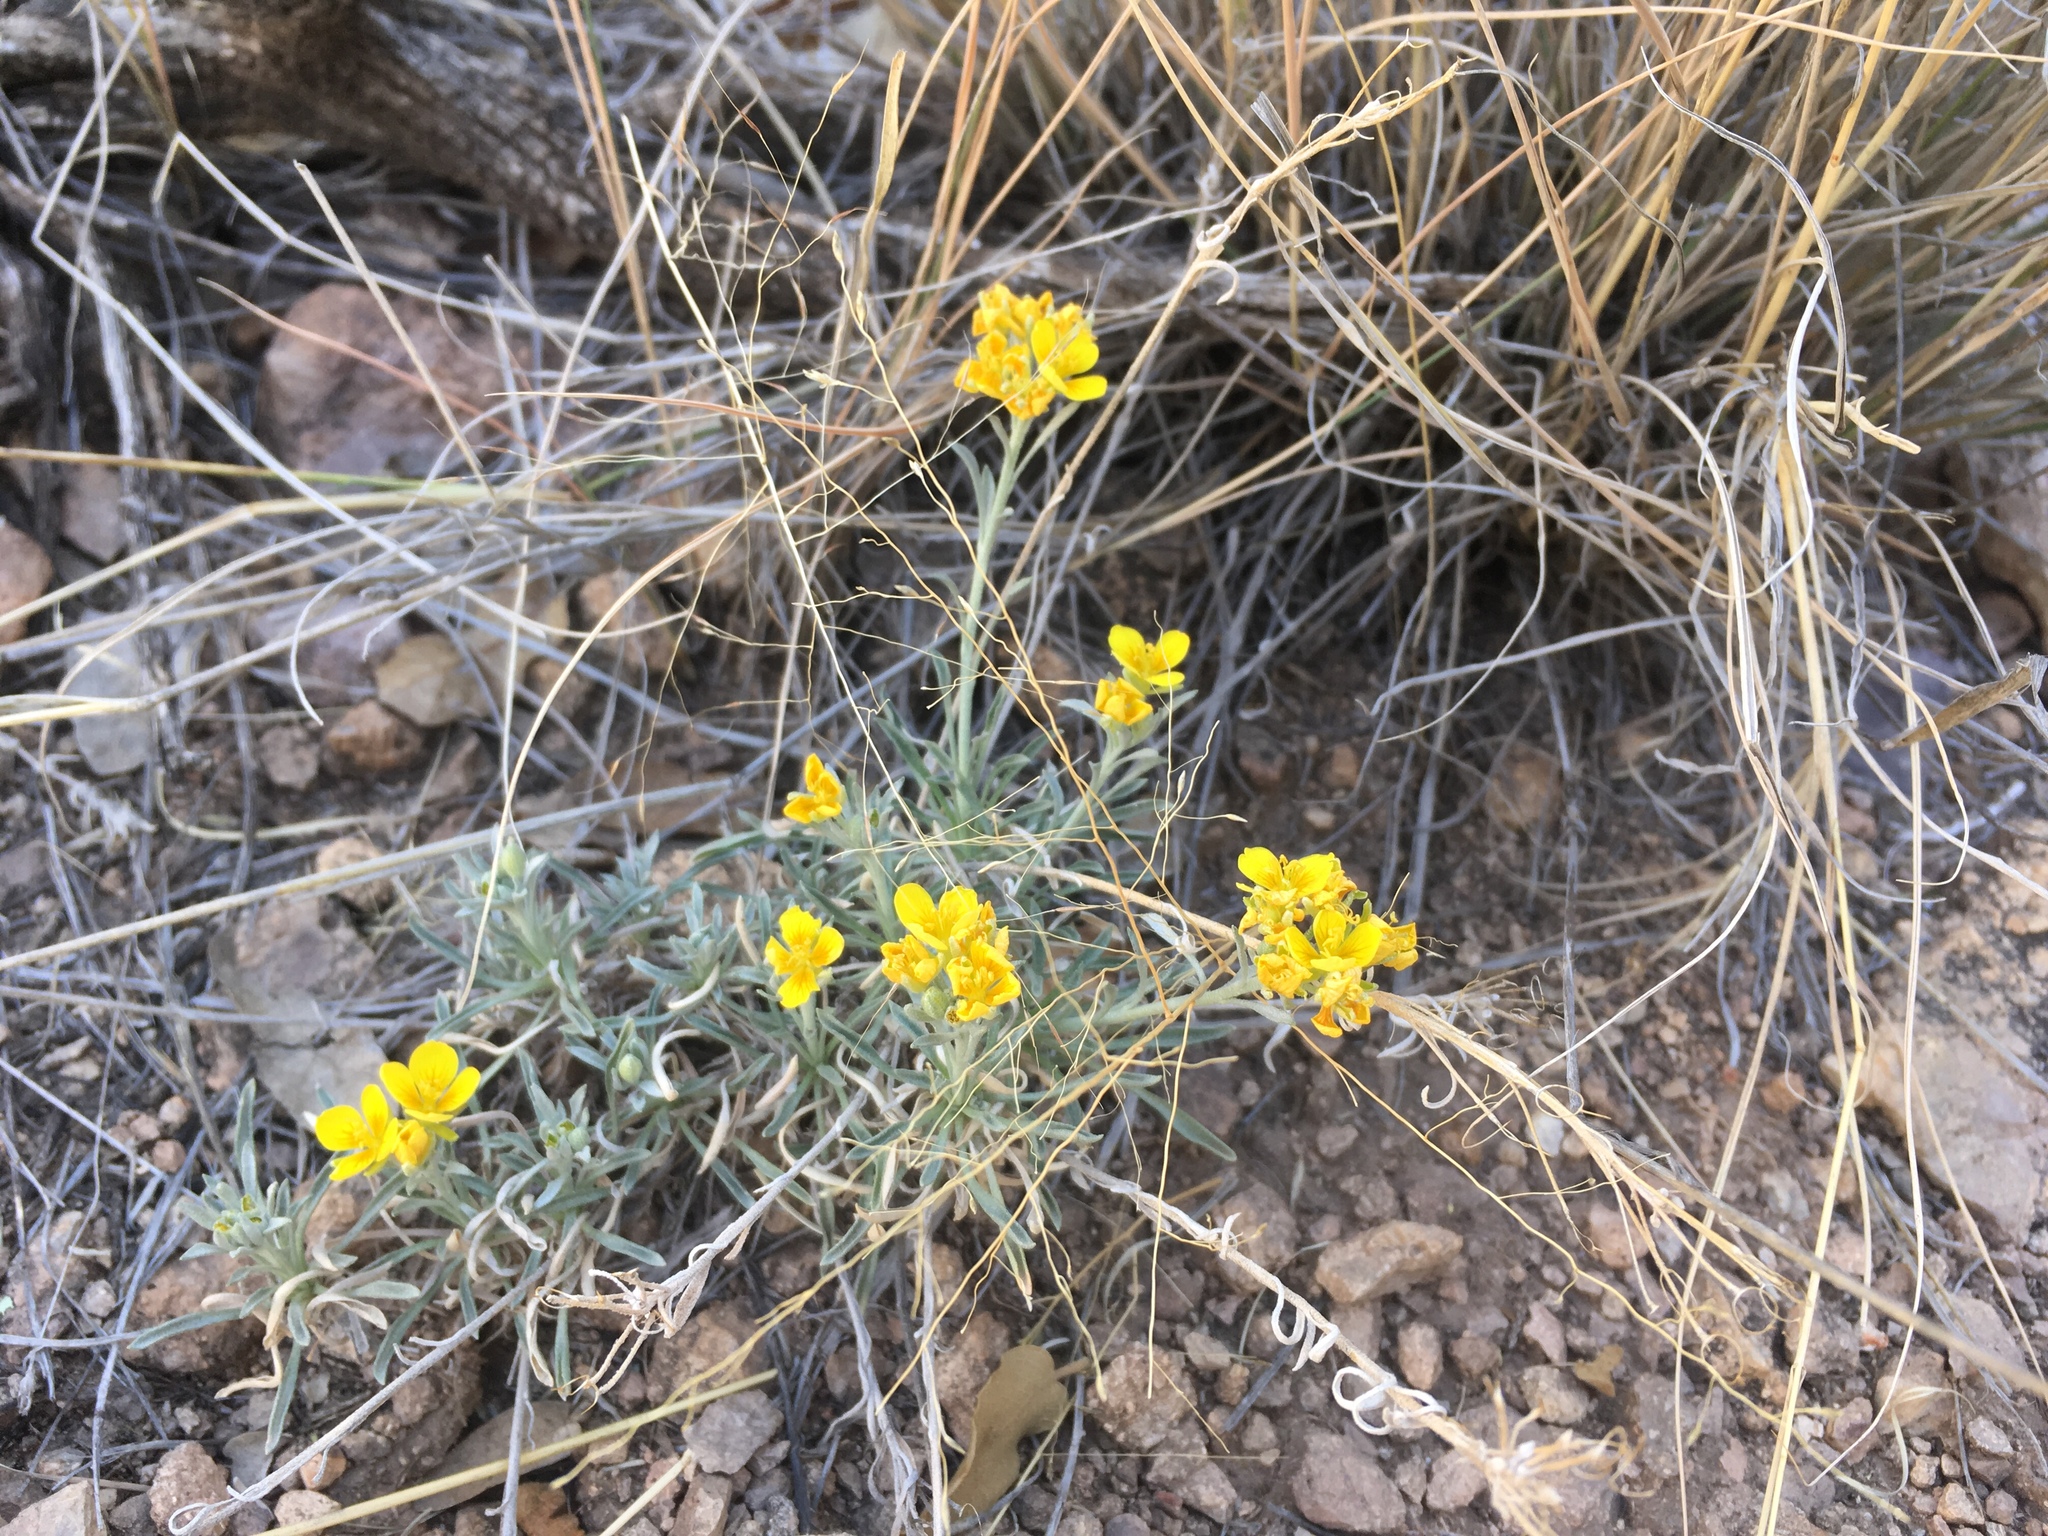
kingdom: Plantae
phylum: Tracheophyta
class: Magnoliopsida
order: Brassicales
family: Brassicaceae
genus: Physaria
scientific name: Physaria fendleri
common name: Fendler's bladderpod
